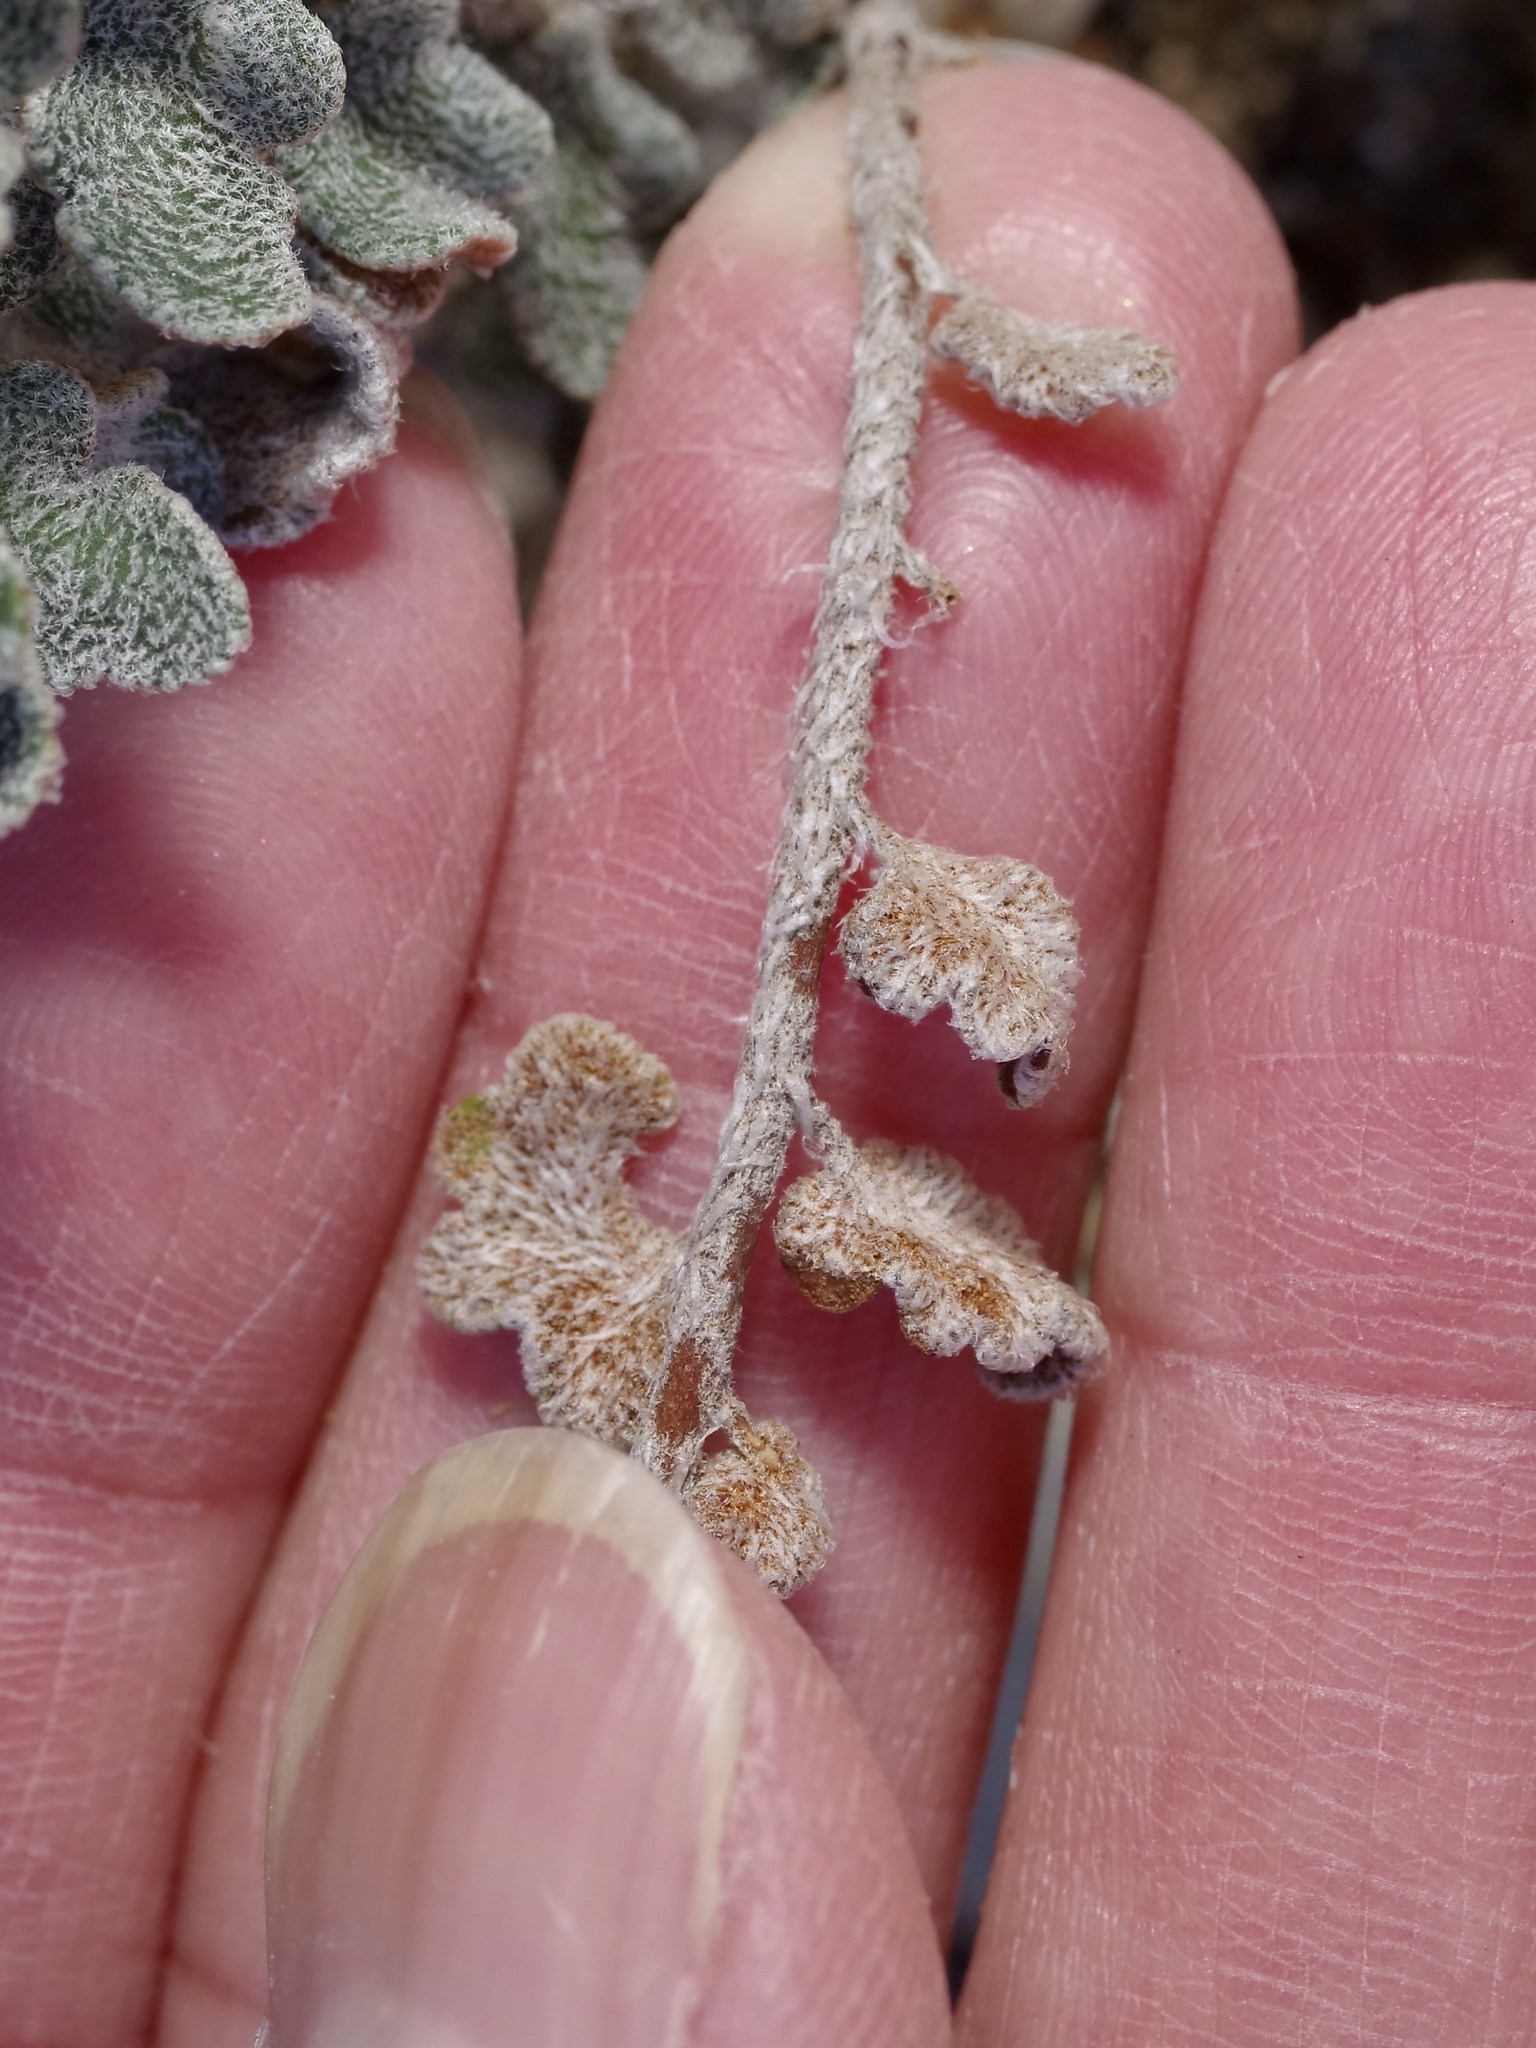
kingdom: Plantae
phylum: Tracheophyta
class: Polypodiopsida
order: Polypodiales
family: Pteridaceae
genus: Astrolepis
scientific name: Astrolepis integerrima
